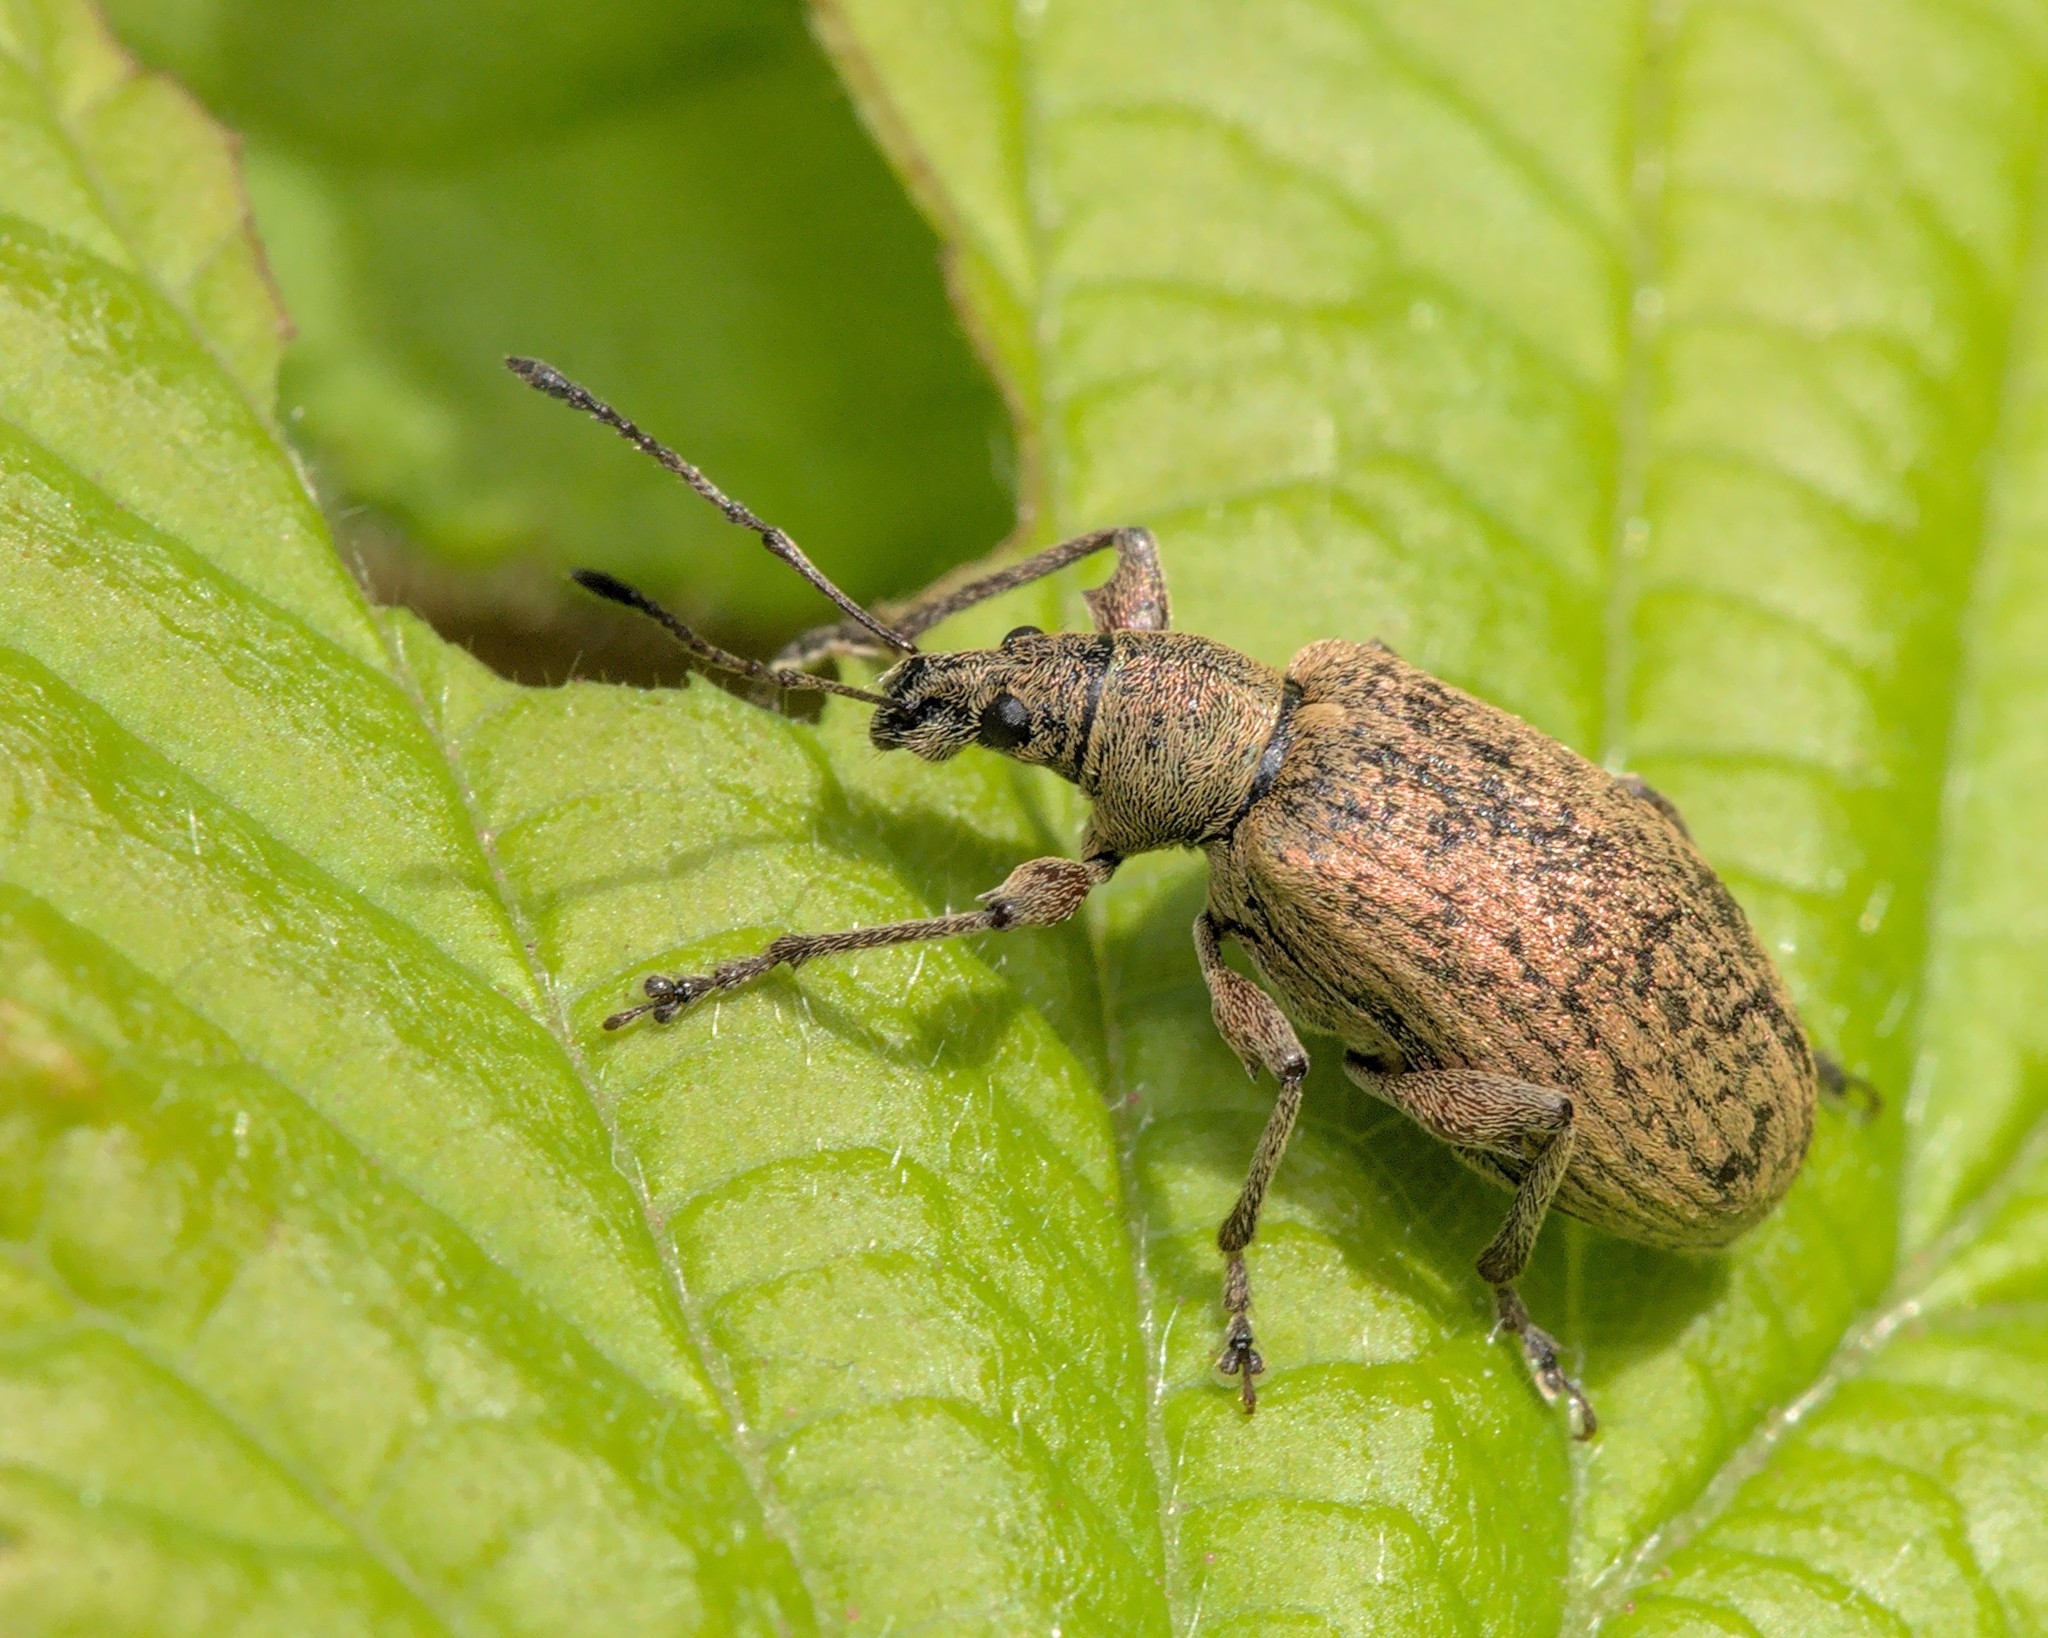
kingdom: Animalia
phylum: Arthropoda
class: Insecta
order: Coleoptera
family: Curculionidae
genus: Phyllobius
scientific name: Phyllobius pomaceus
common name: Green nettle weevil
